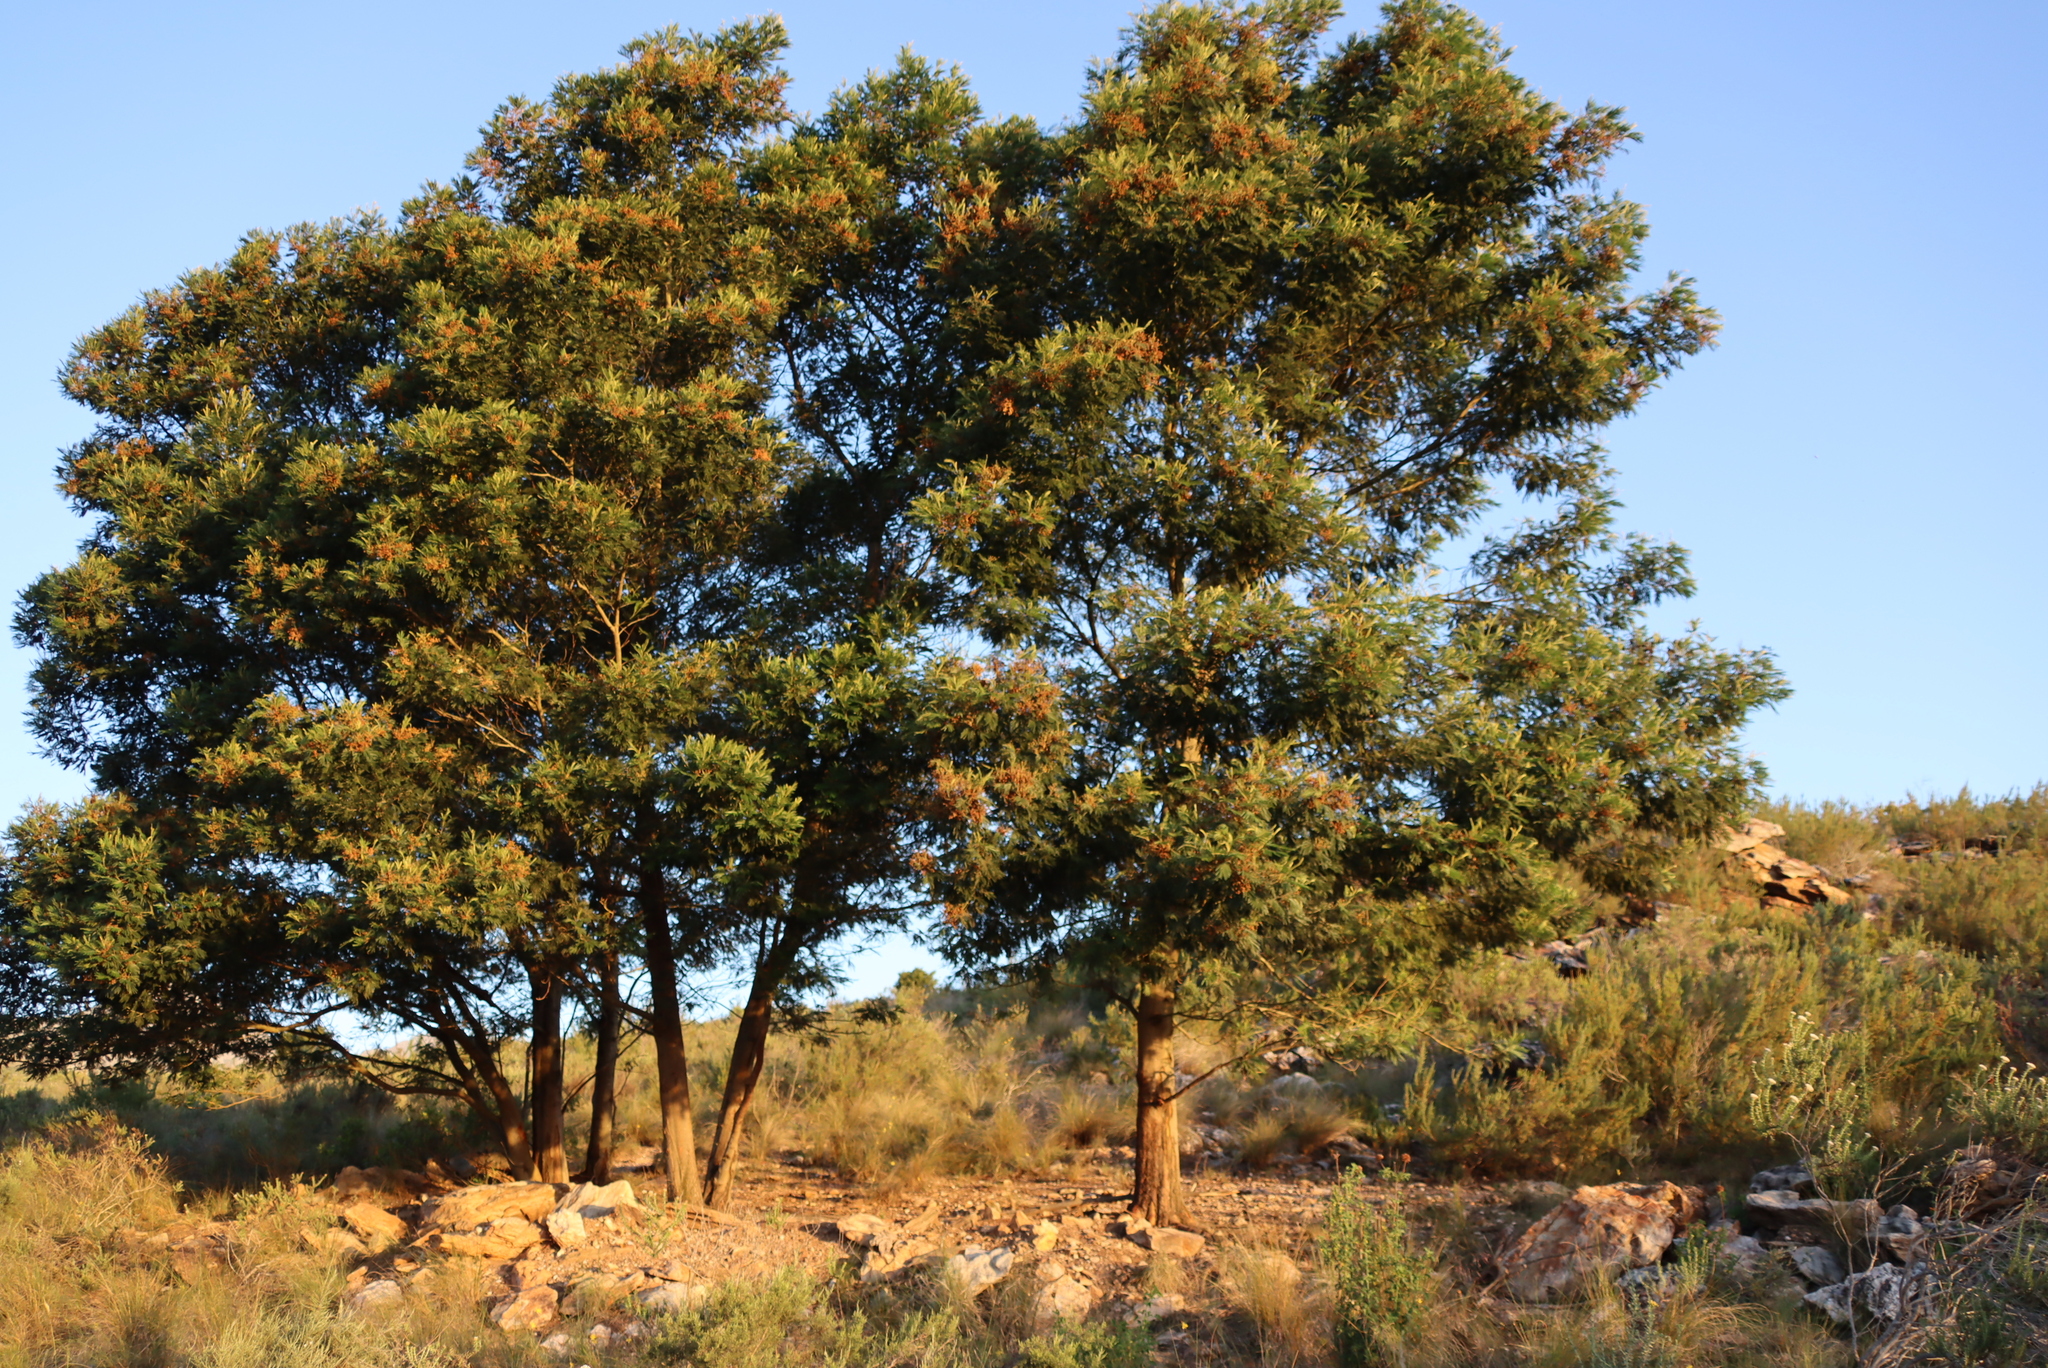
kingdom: Plantae
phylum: Tracheophyta
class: Magnoliopsida
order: Fabales
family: Fabaceae
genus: Acacia
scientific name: Acacia mearnsii
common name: Black wattle
